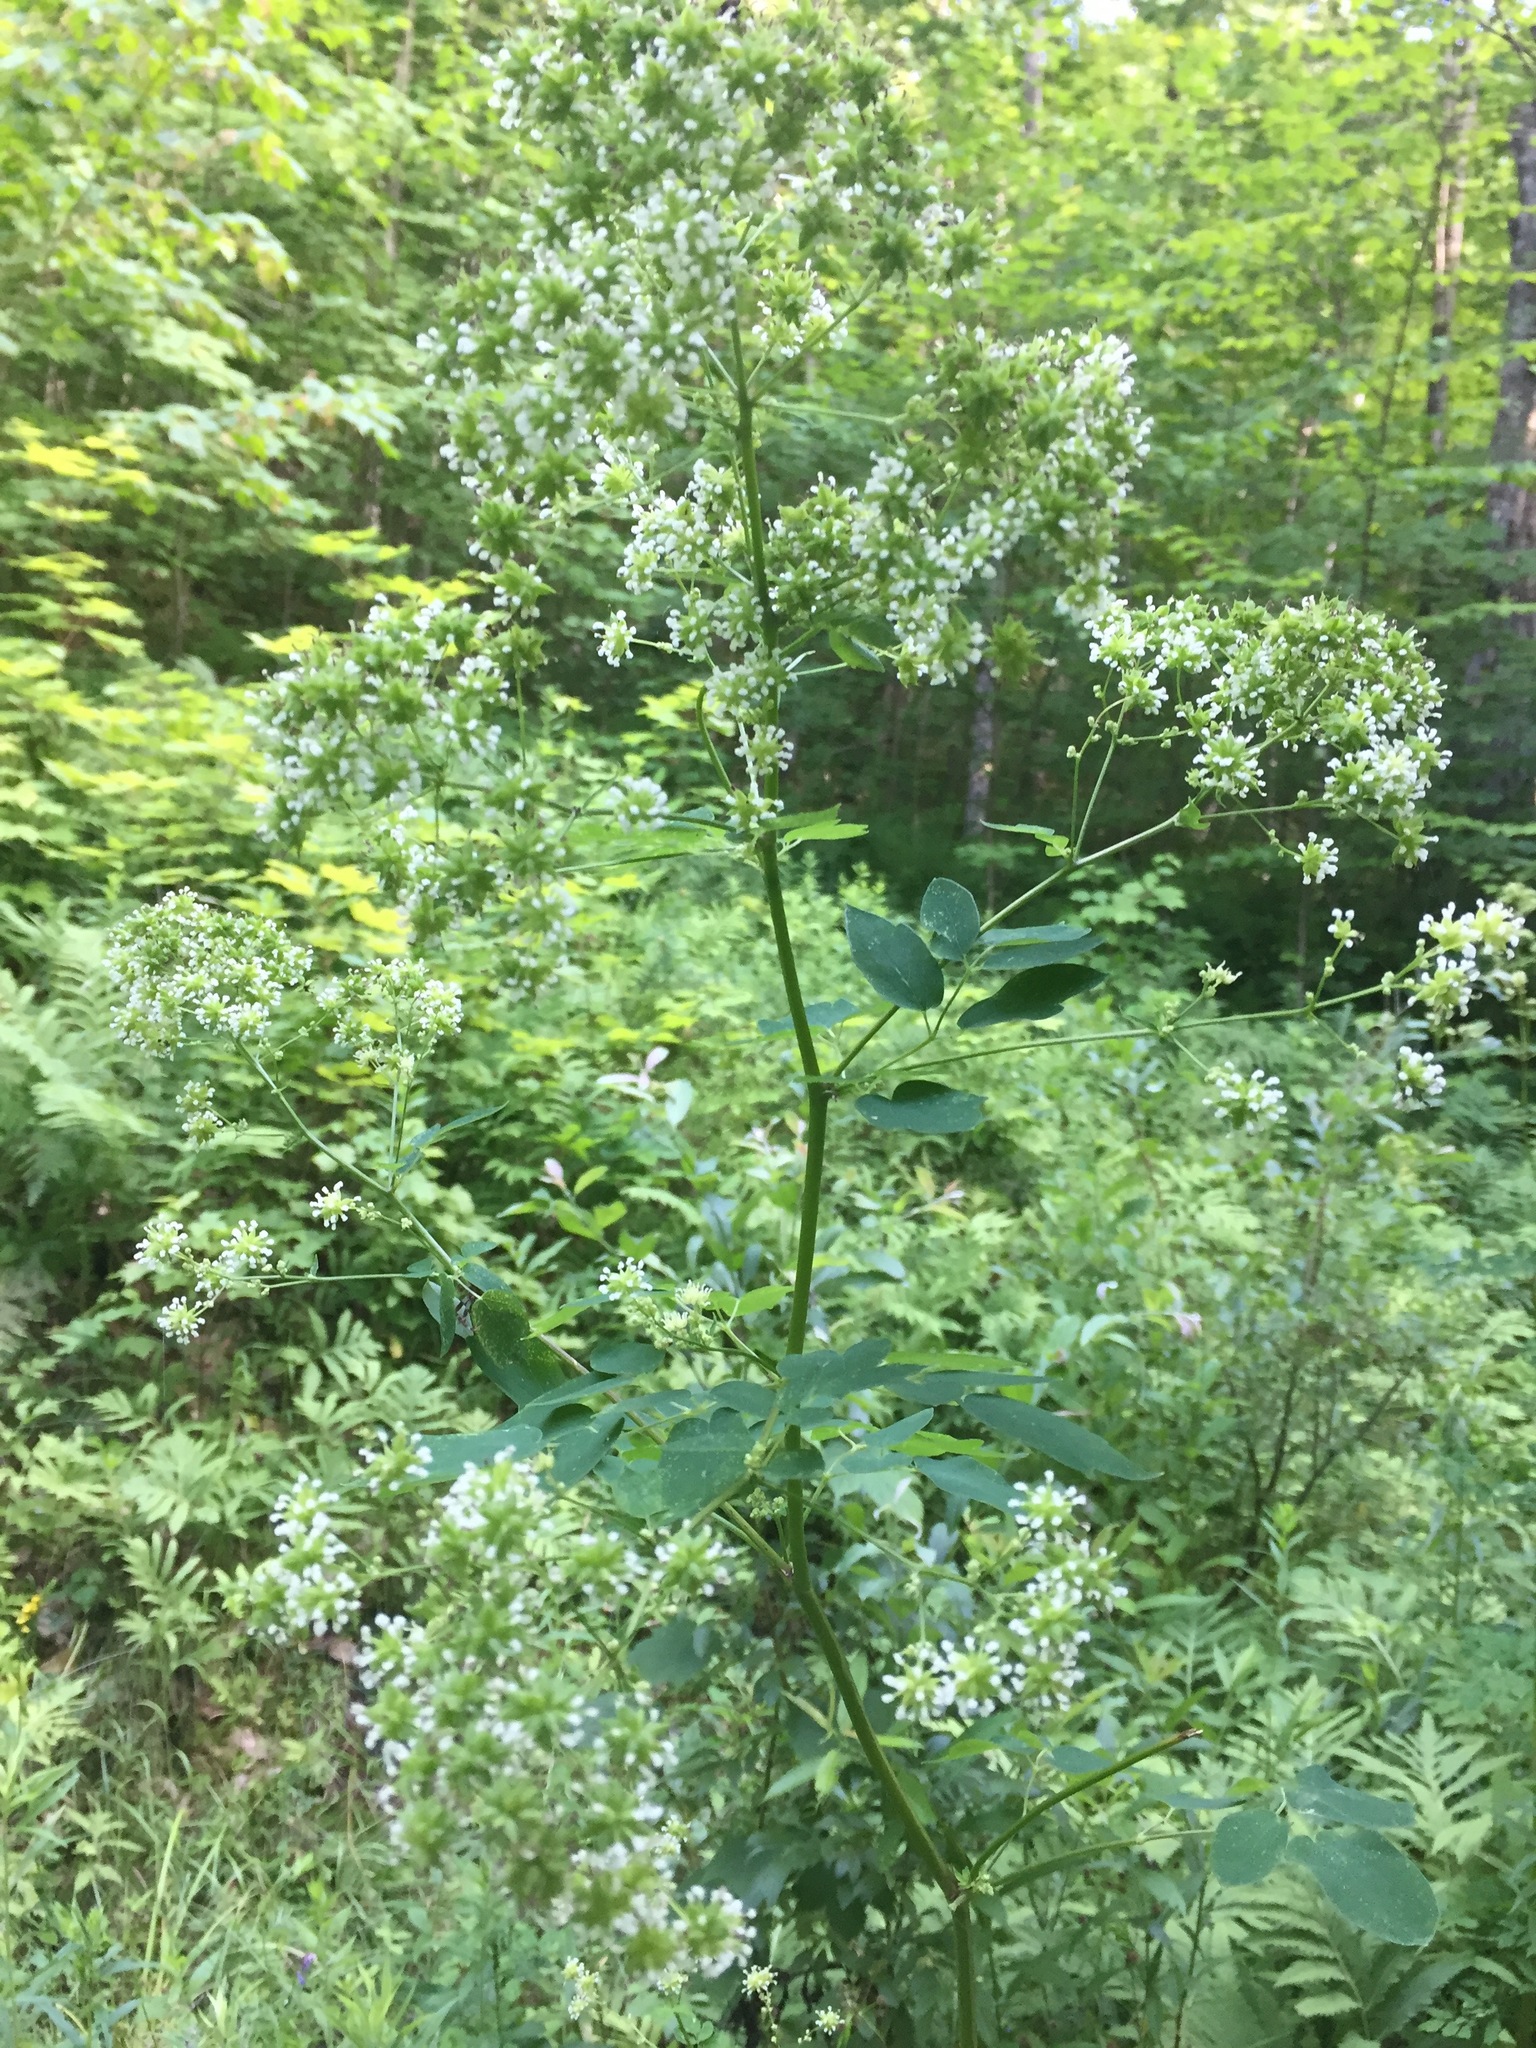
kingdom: Plantae
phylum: Tracheophyta
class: Magnoliopsida
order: Ranunculales
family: Ranunculaceae
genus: Thalictrum
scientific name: Thalictrum pubescens
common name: King-of-the-meadow
